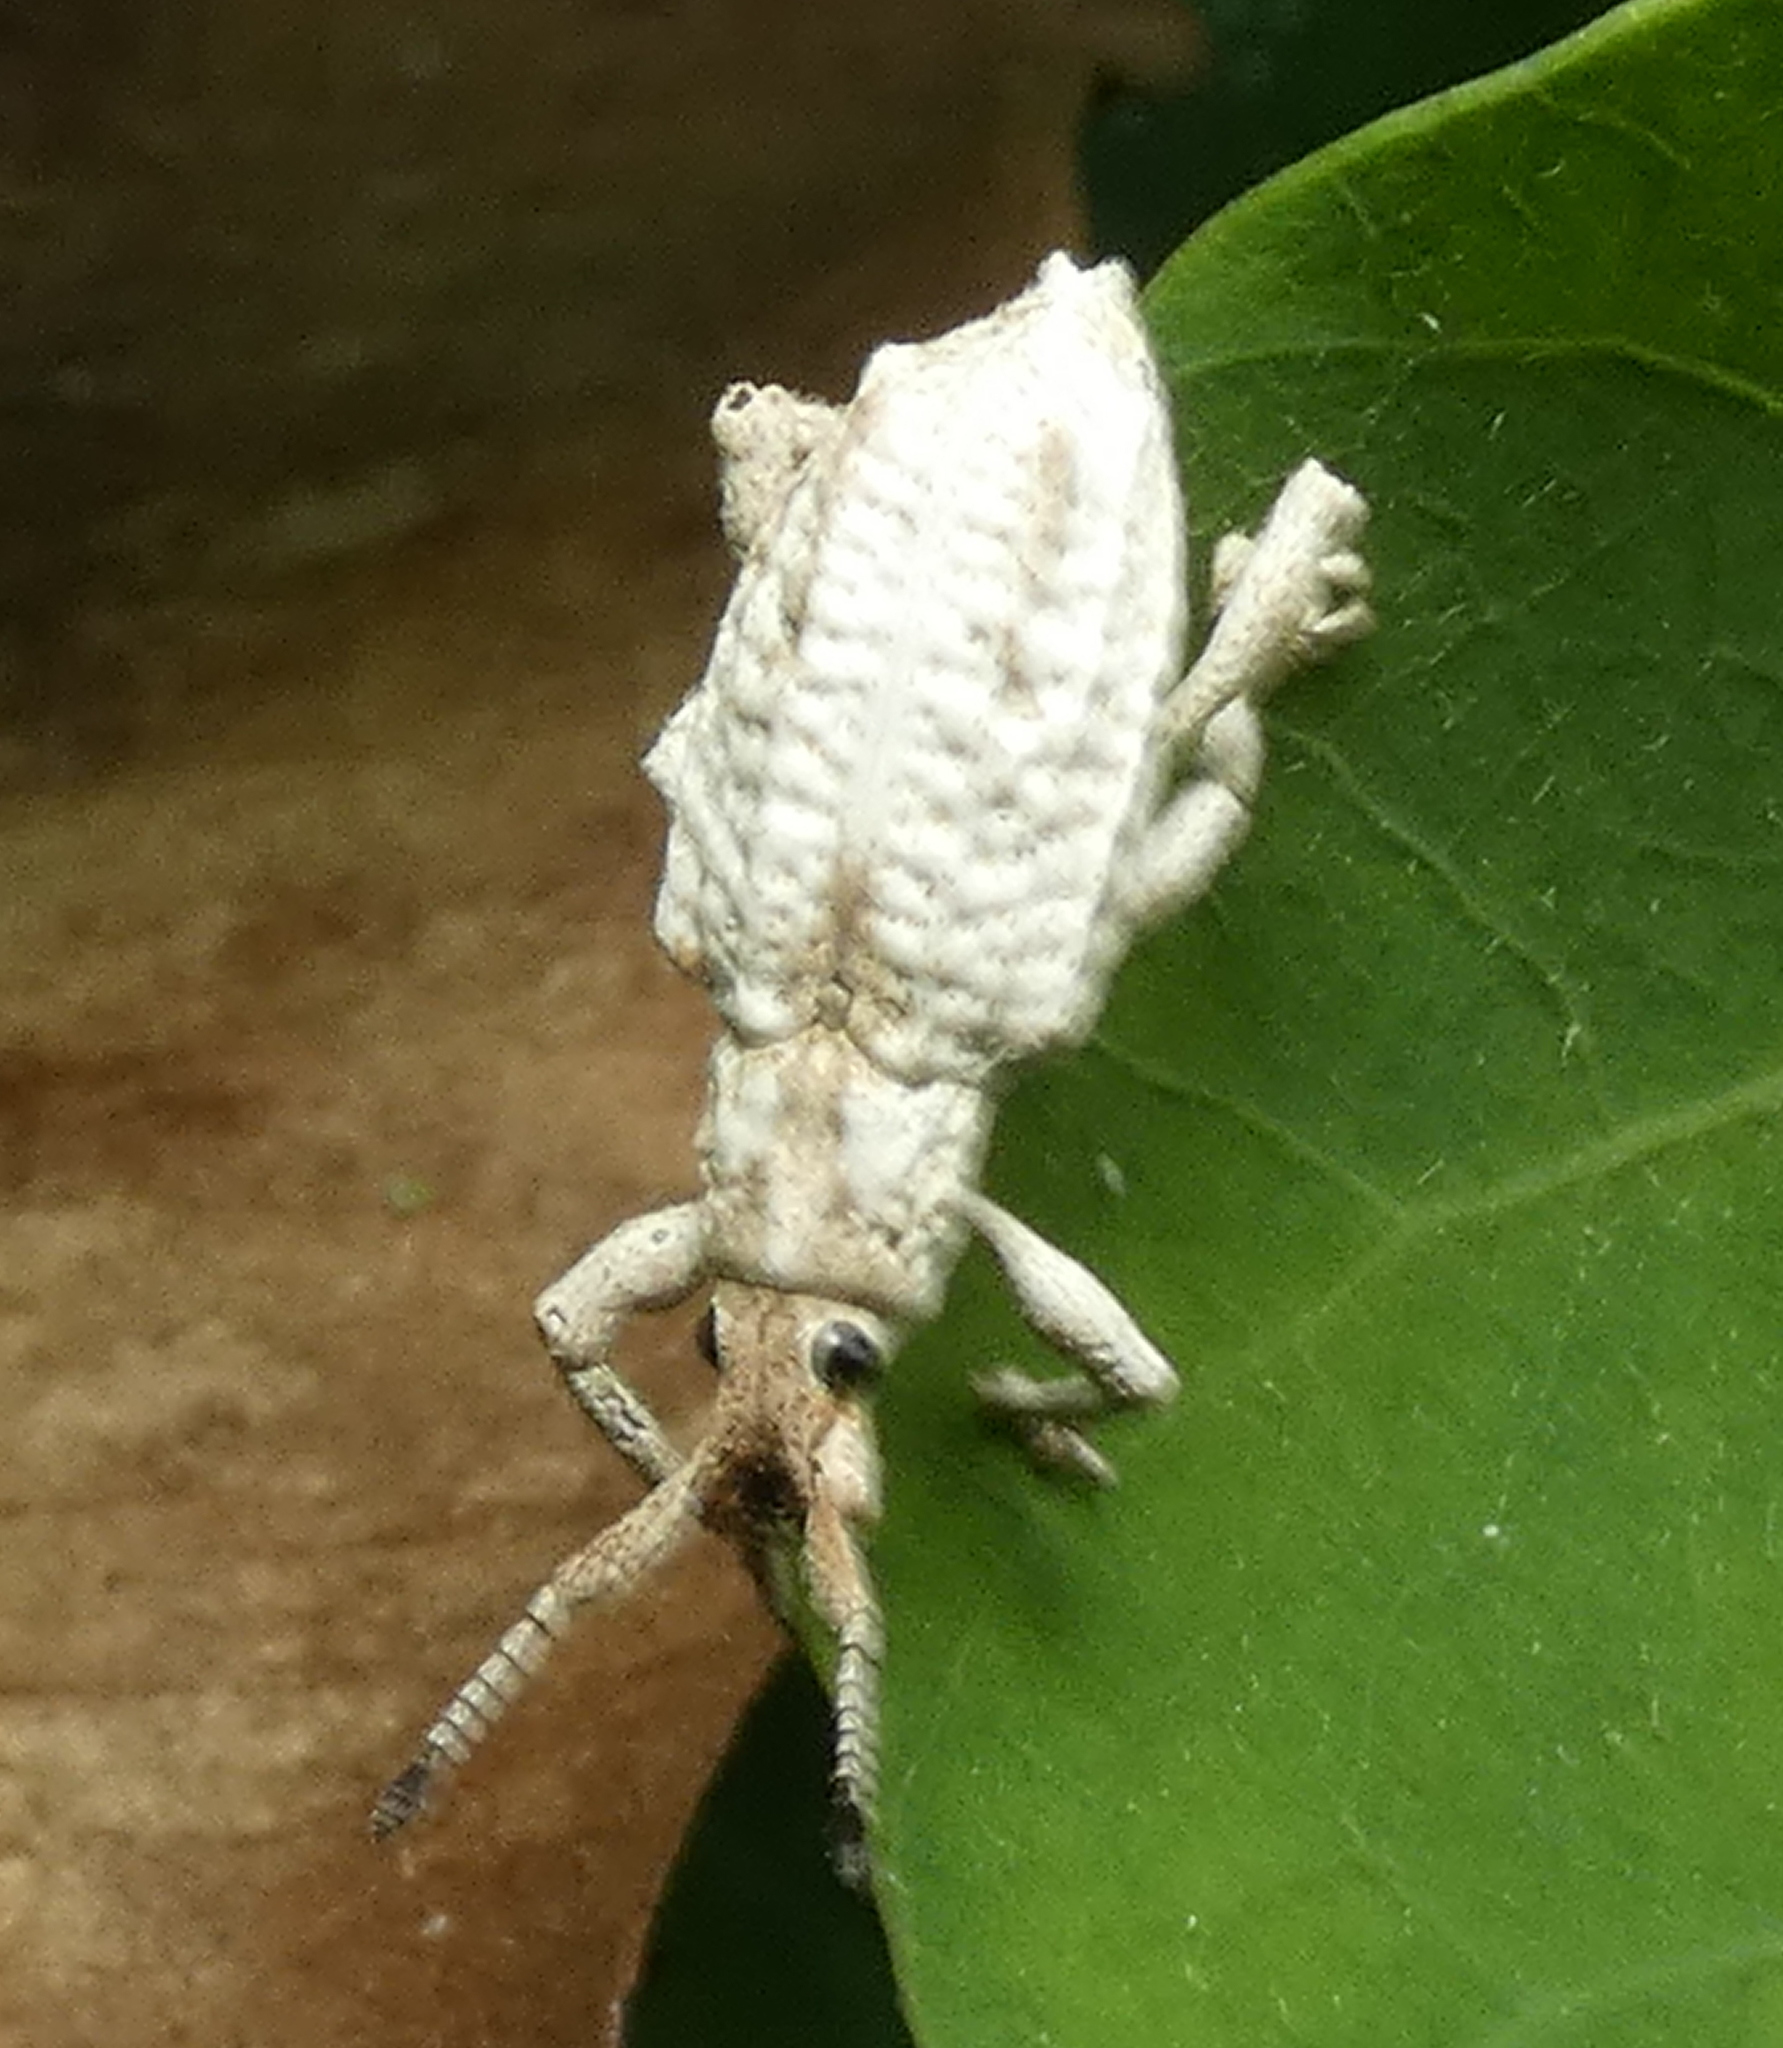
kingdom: Animalia
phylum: Arthropoda
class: Insecta
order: Coleoptera
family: Curculionidae
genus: Compsus
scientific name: Compsus niveus
